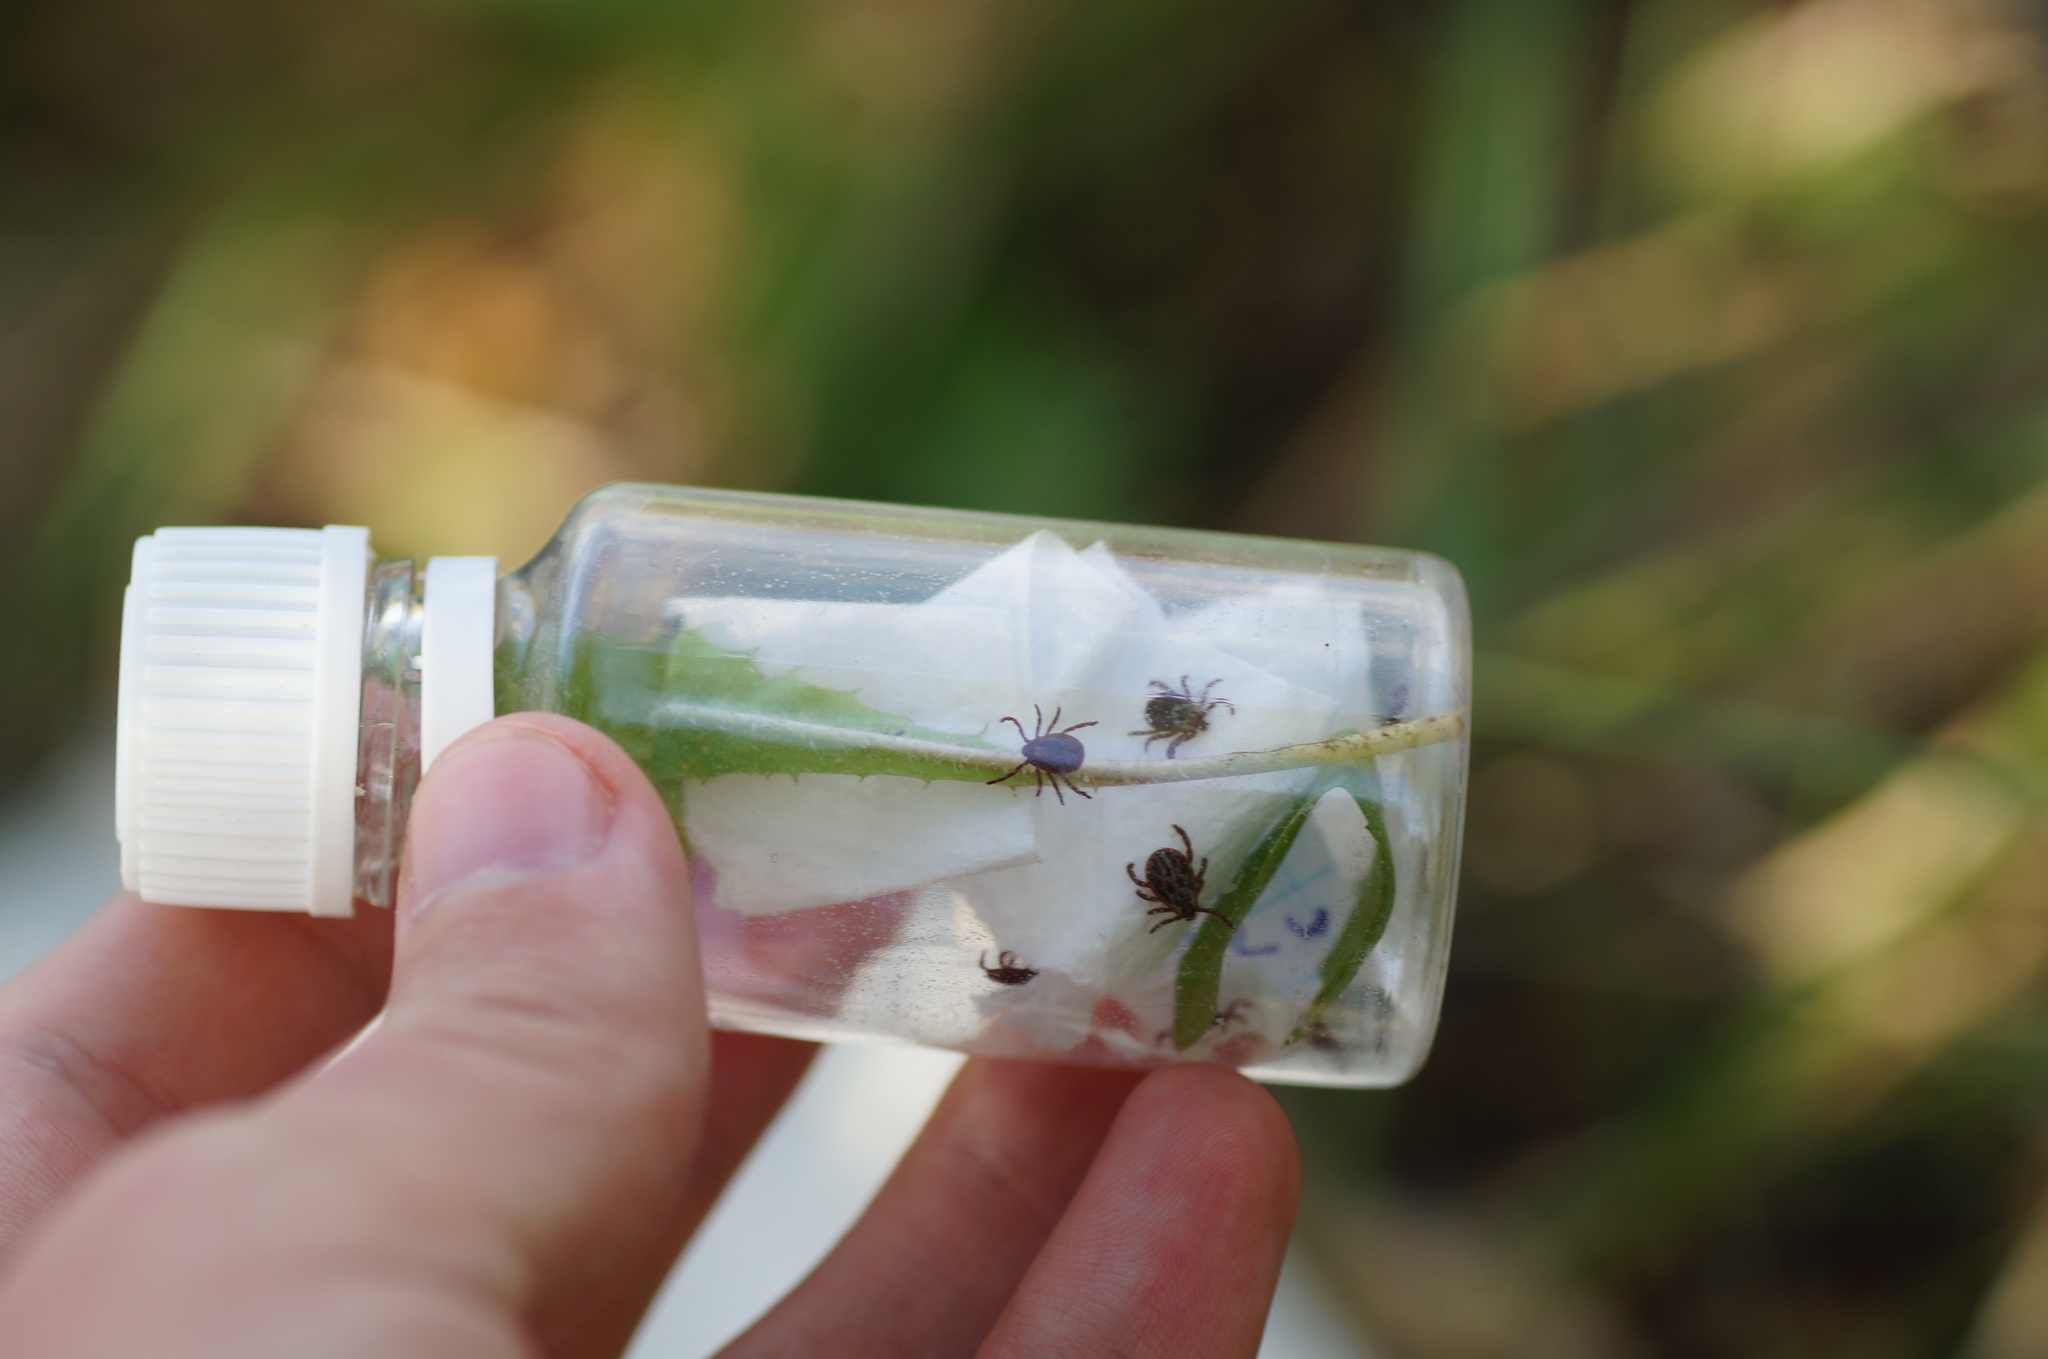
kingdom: Animalia
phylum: Arthropoda
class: Arachnida
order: Ixodida
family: Ixodidae
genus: Dermacentor
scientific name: Dermacentor reticulatus
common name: Ornate cow tick
